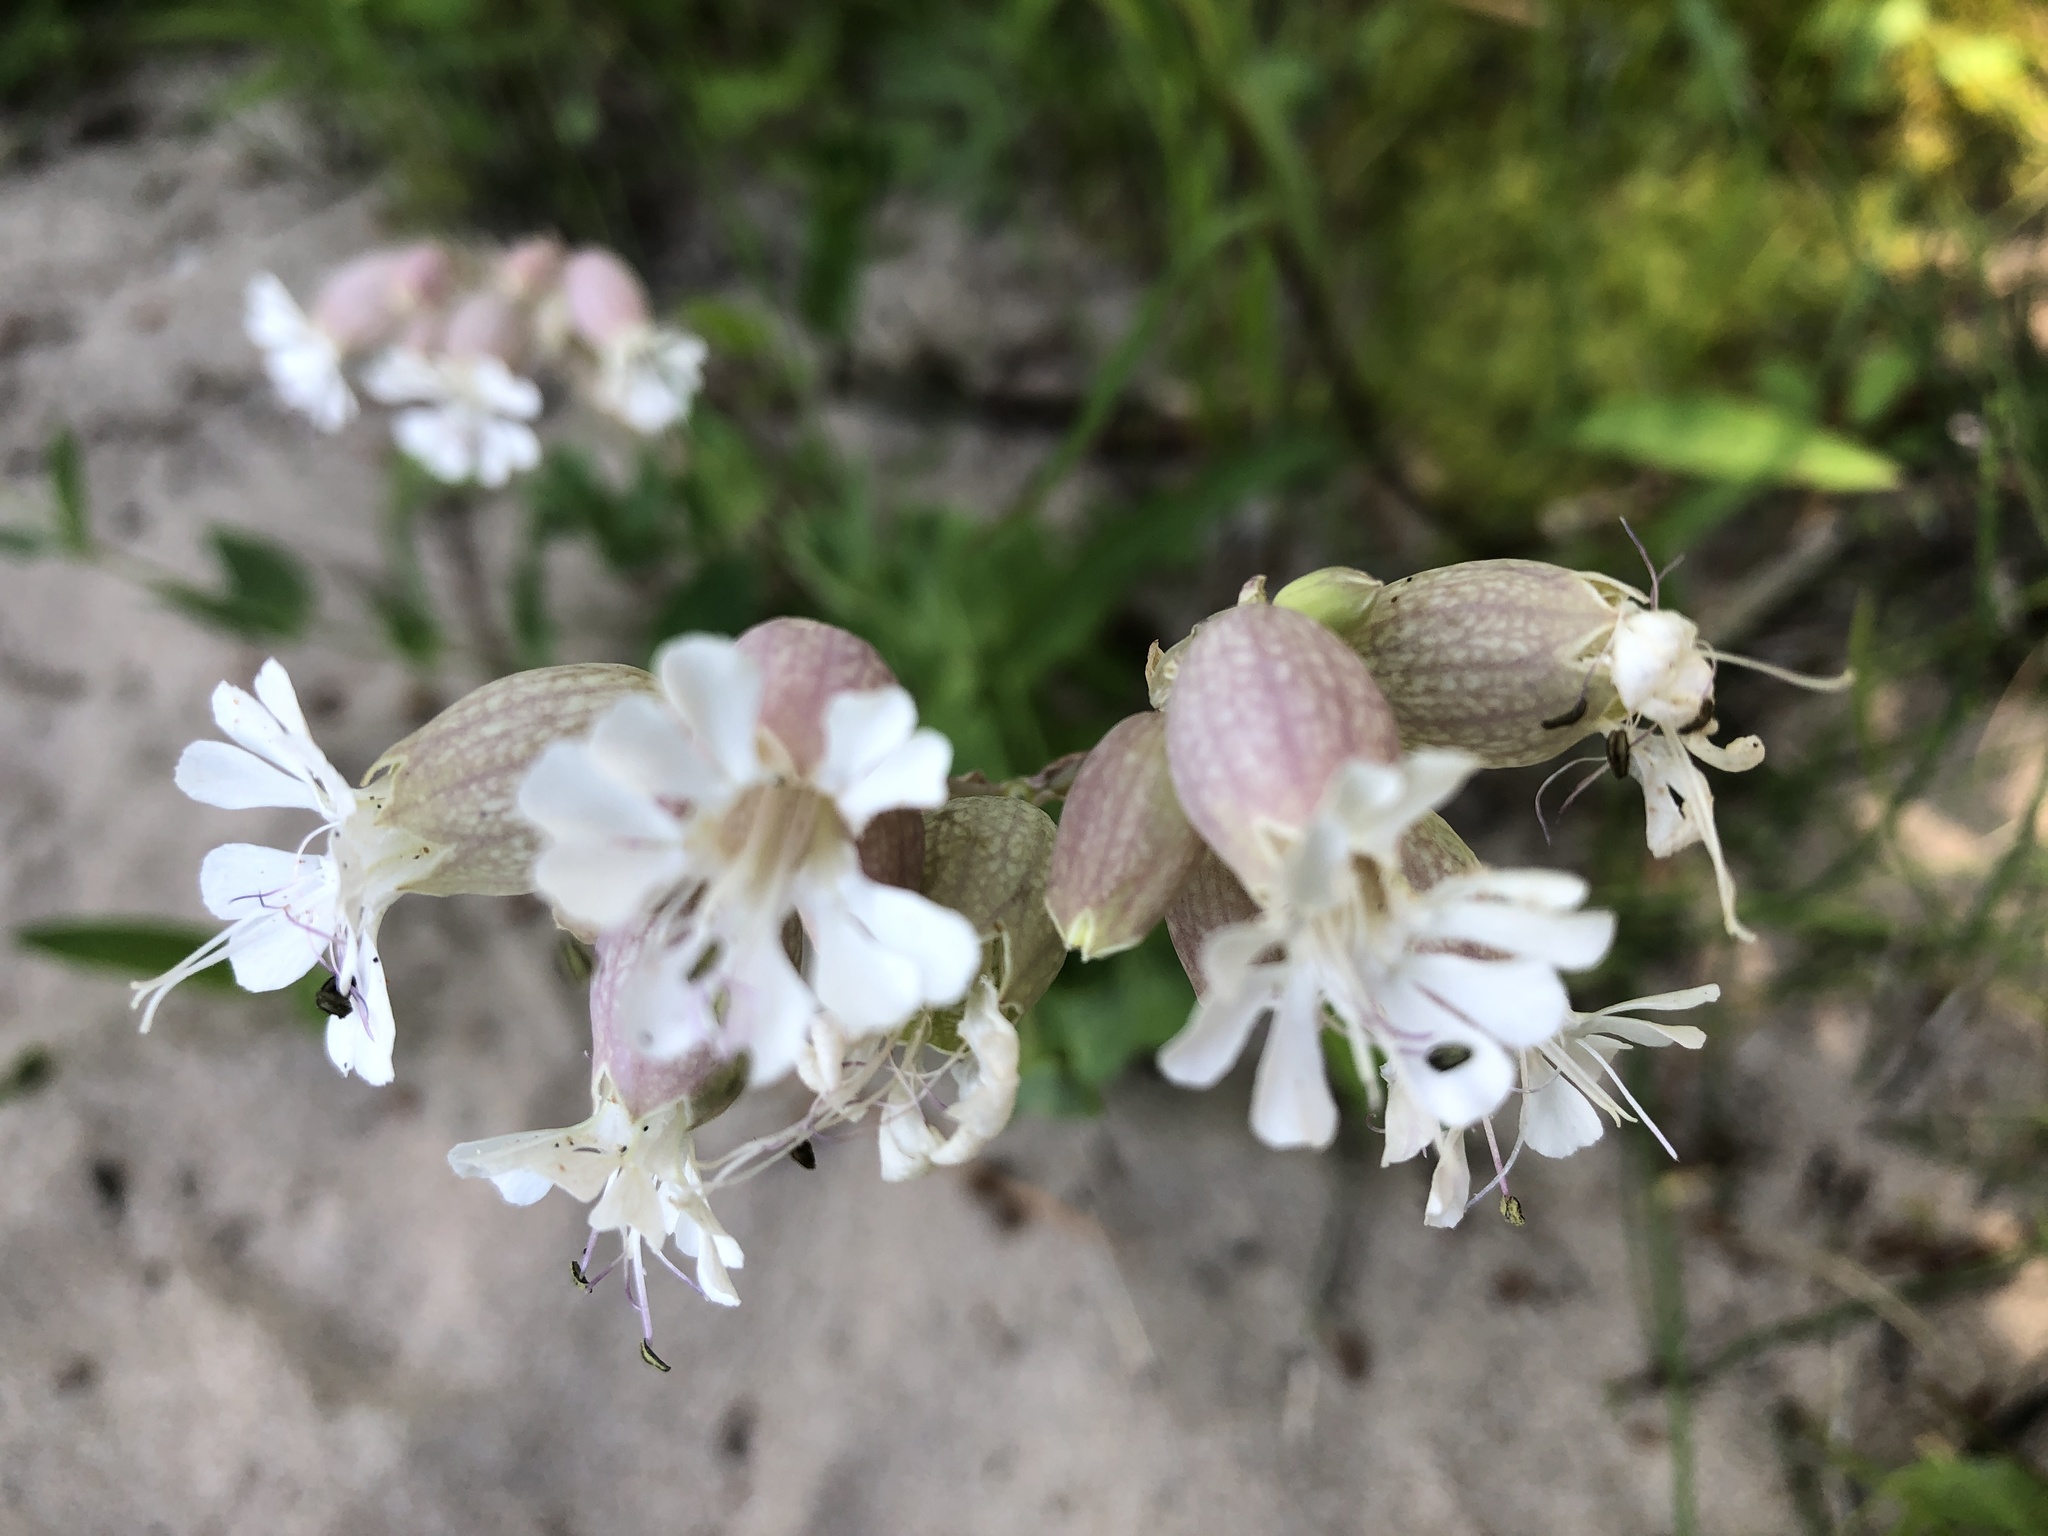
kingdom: Plantae
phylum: Tracheophyta
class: Magnoliopsida
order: Caryophyllales
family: Caryophyllaceae
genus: Silene
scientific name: Silene vulgaris
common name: Bladder campion
